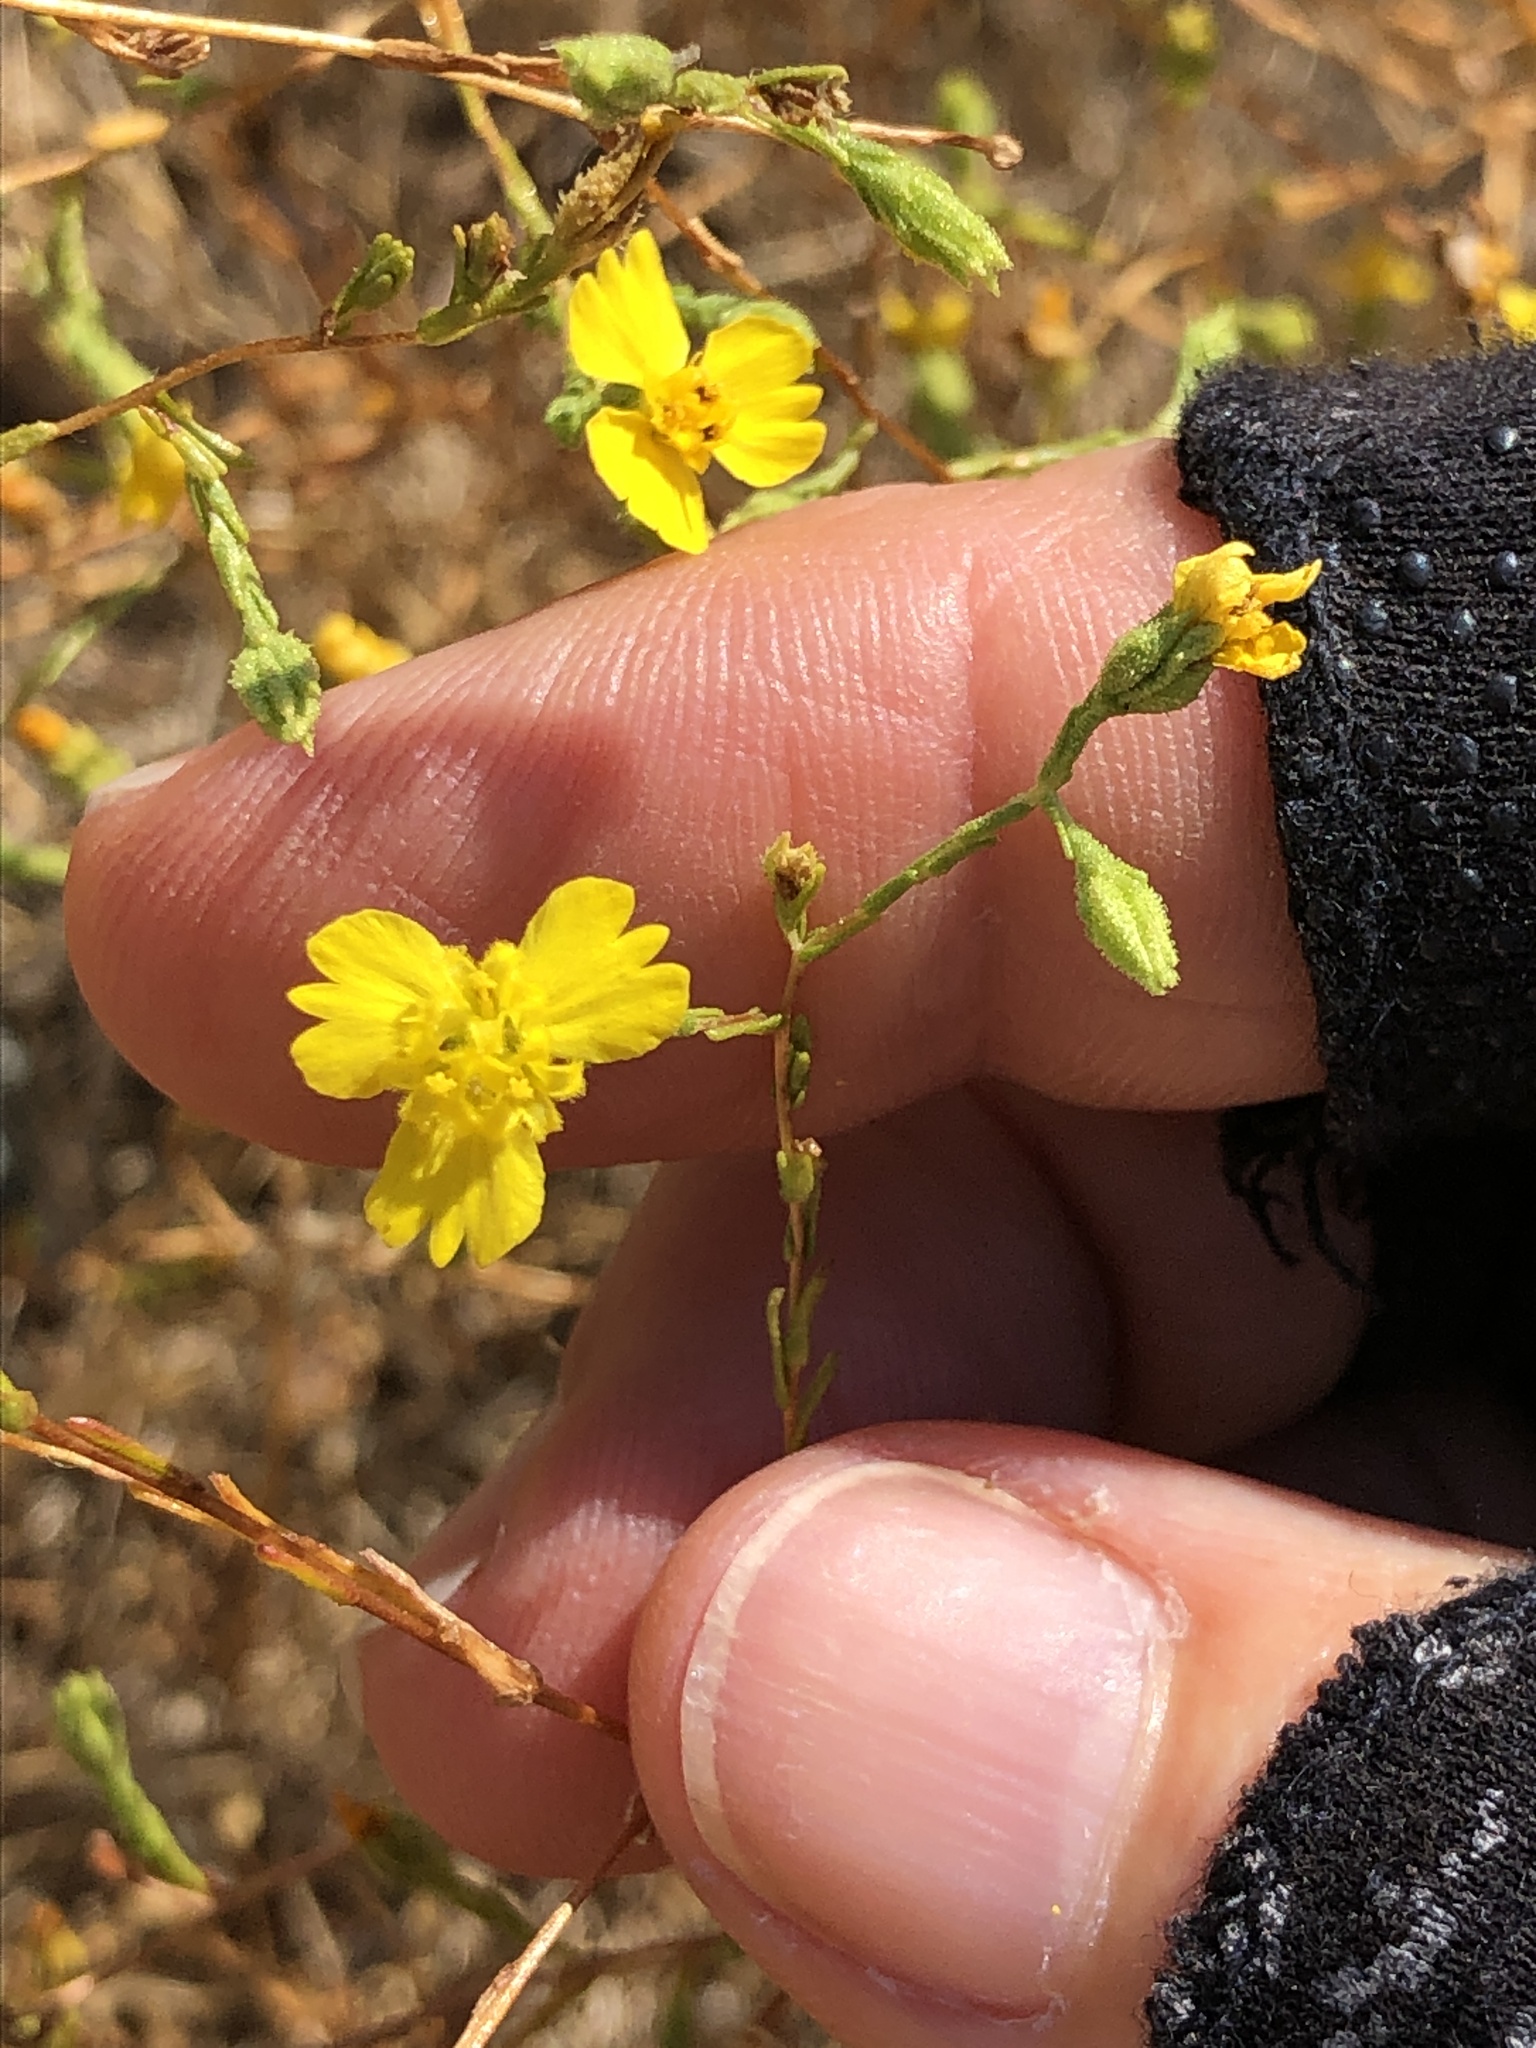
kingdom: Plantae
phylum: Tracheophyta
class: Magnoliopsida
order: Asterales
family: Asteraceae
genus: Deinandra
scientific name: Deinandra lobbii
